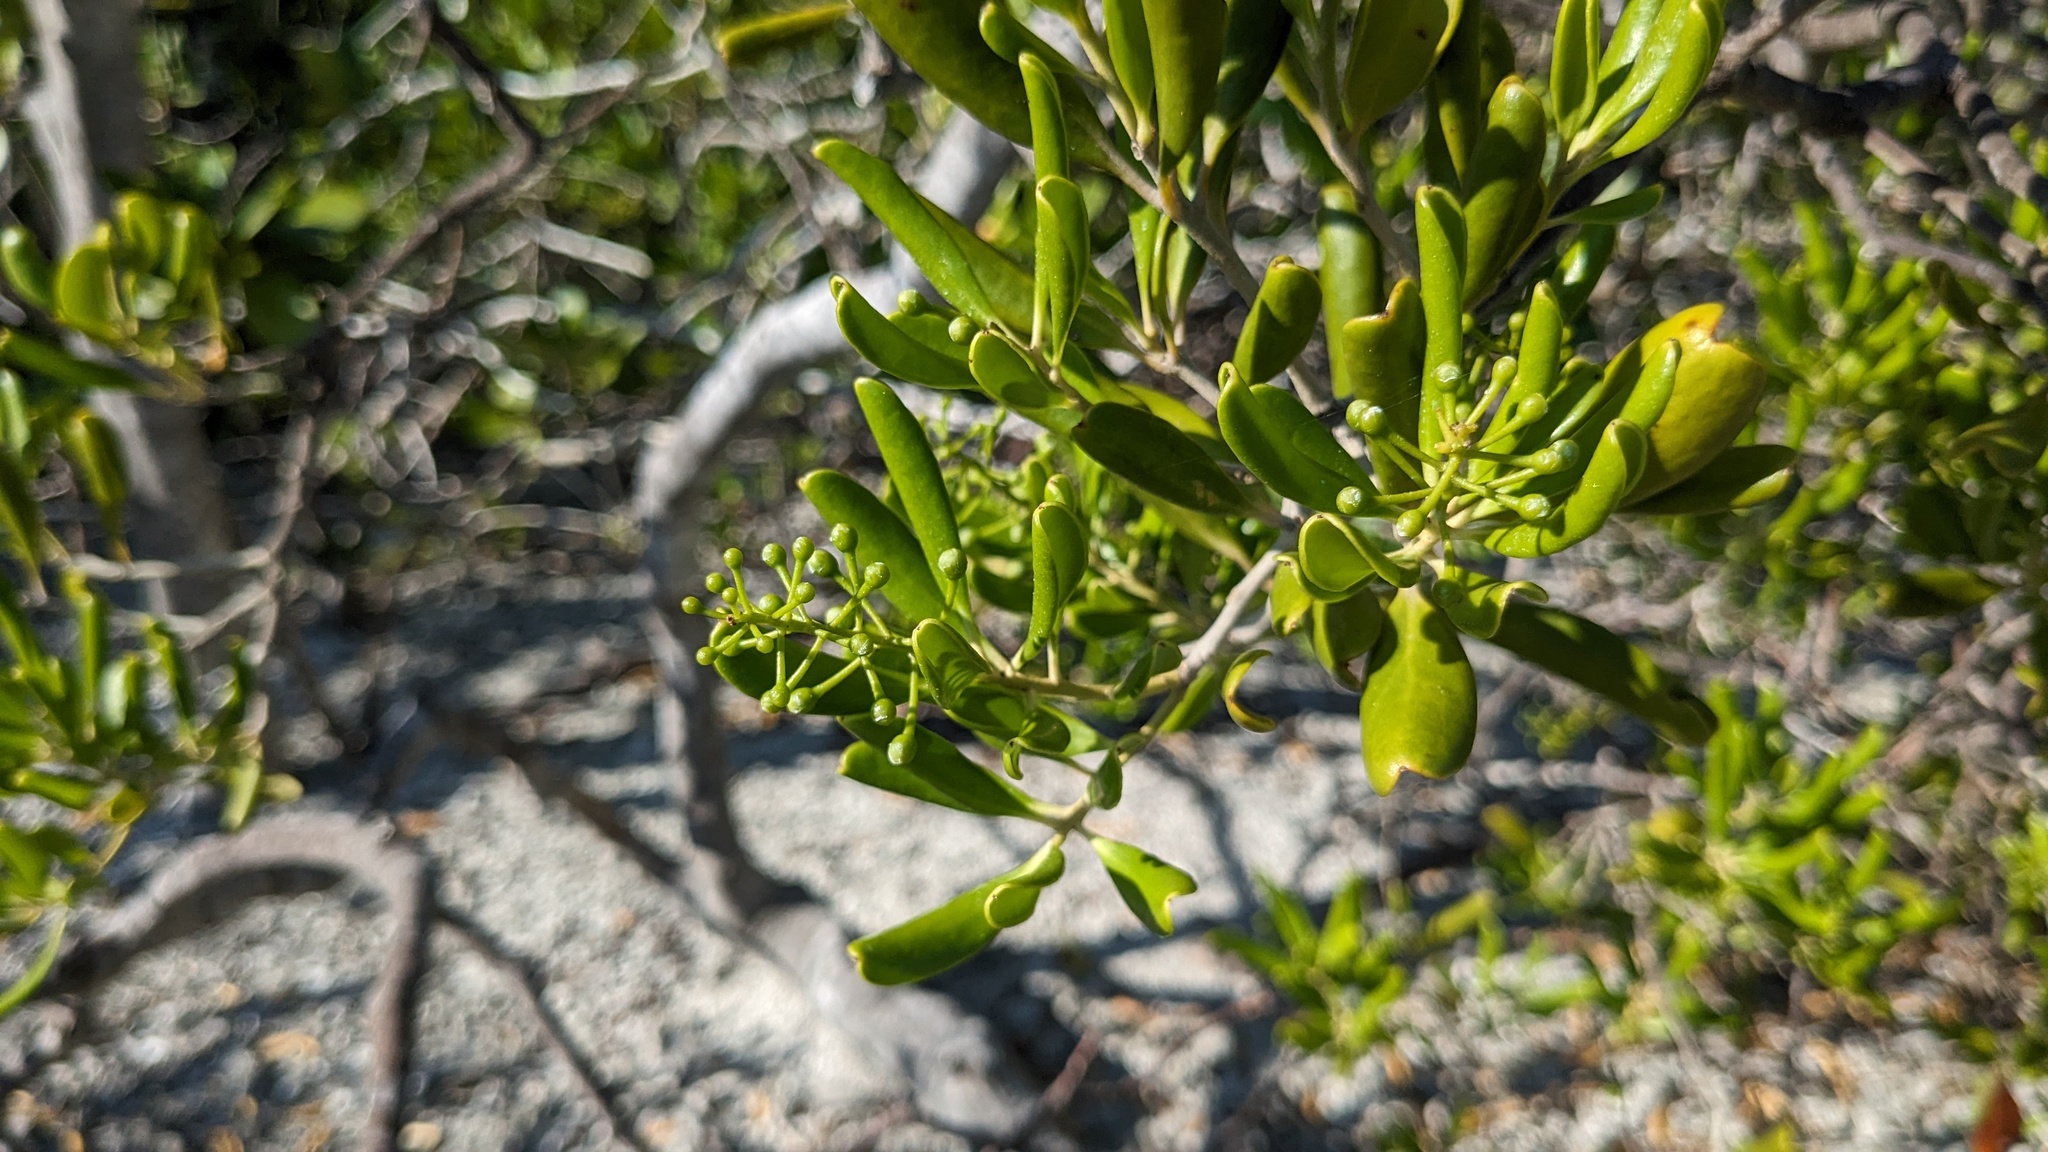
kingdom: Plantae
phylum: Tracheophyta
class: Magnoliopsida
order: Ericales
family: Primulaceae
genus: Jacquinia
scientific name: Jacquinia keyensis
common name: Joebush
